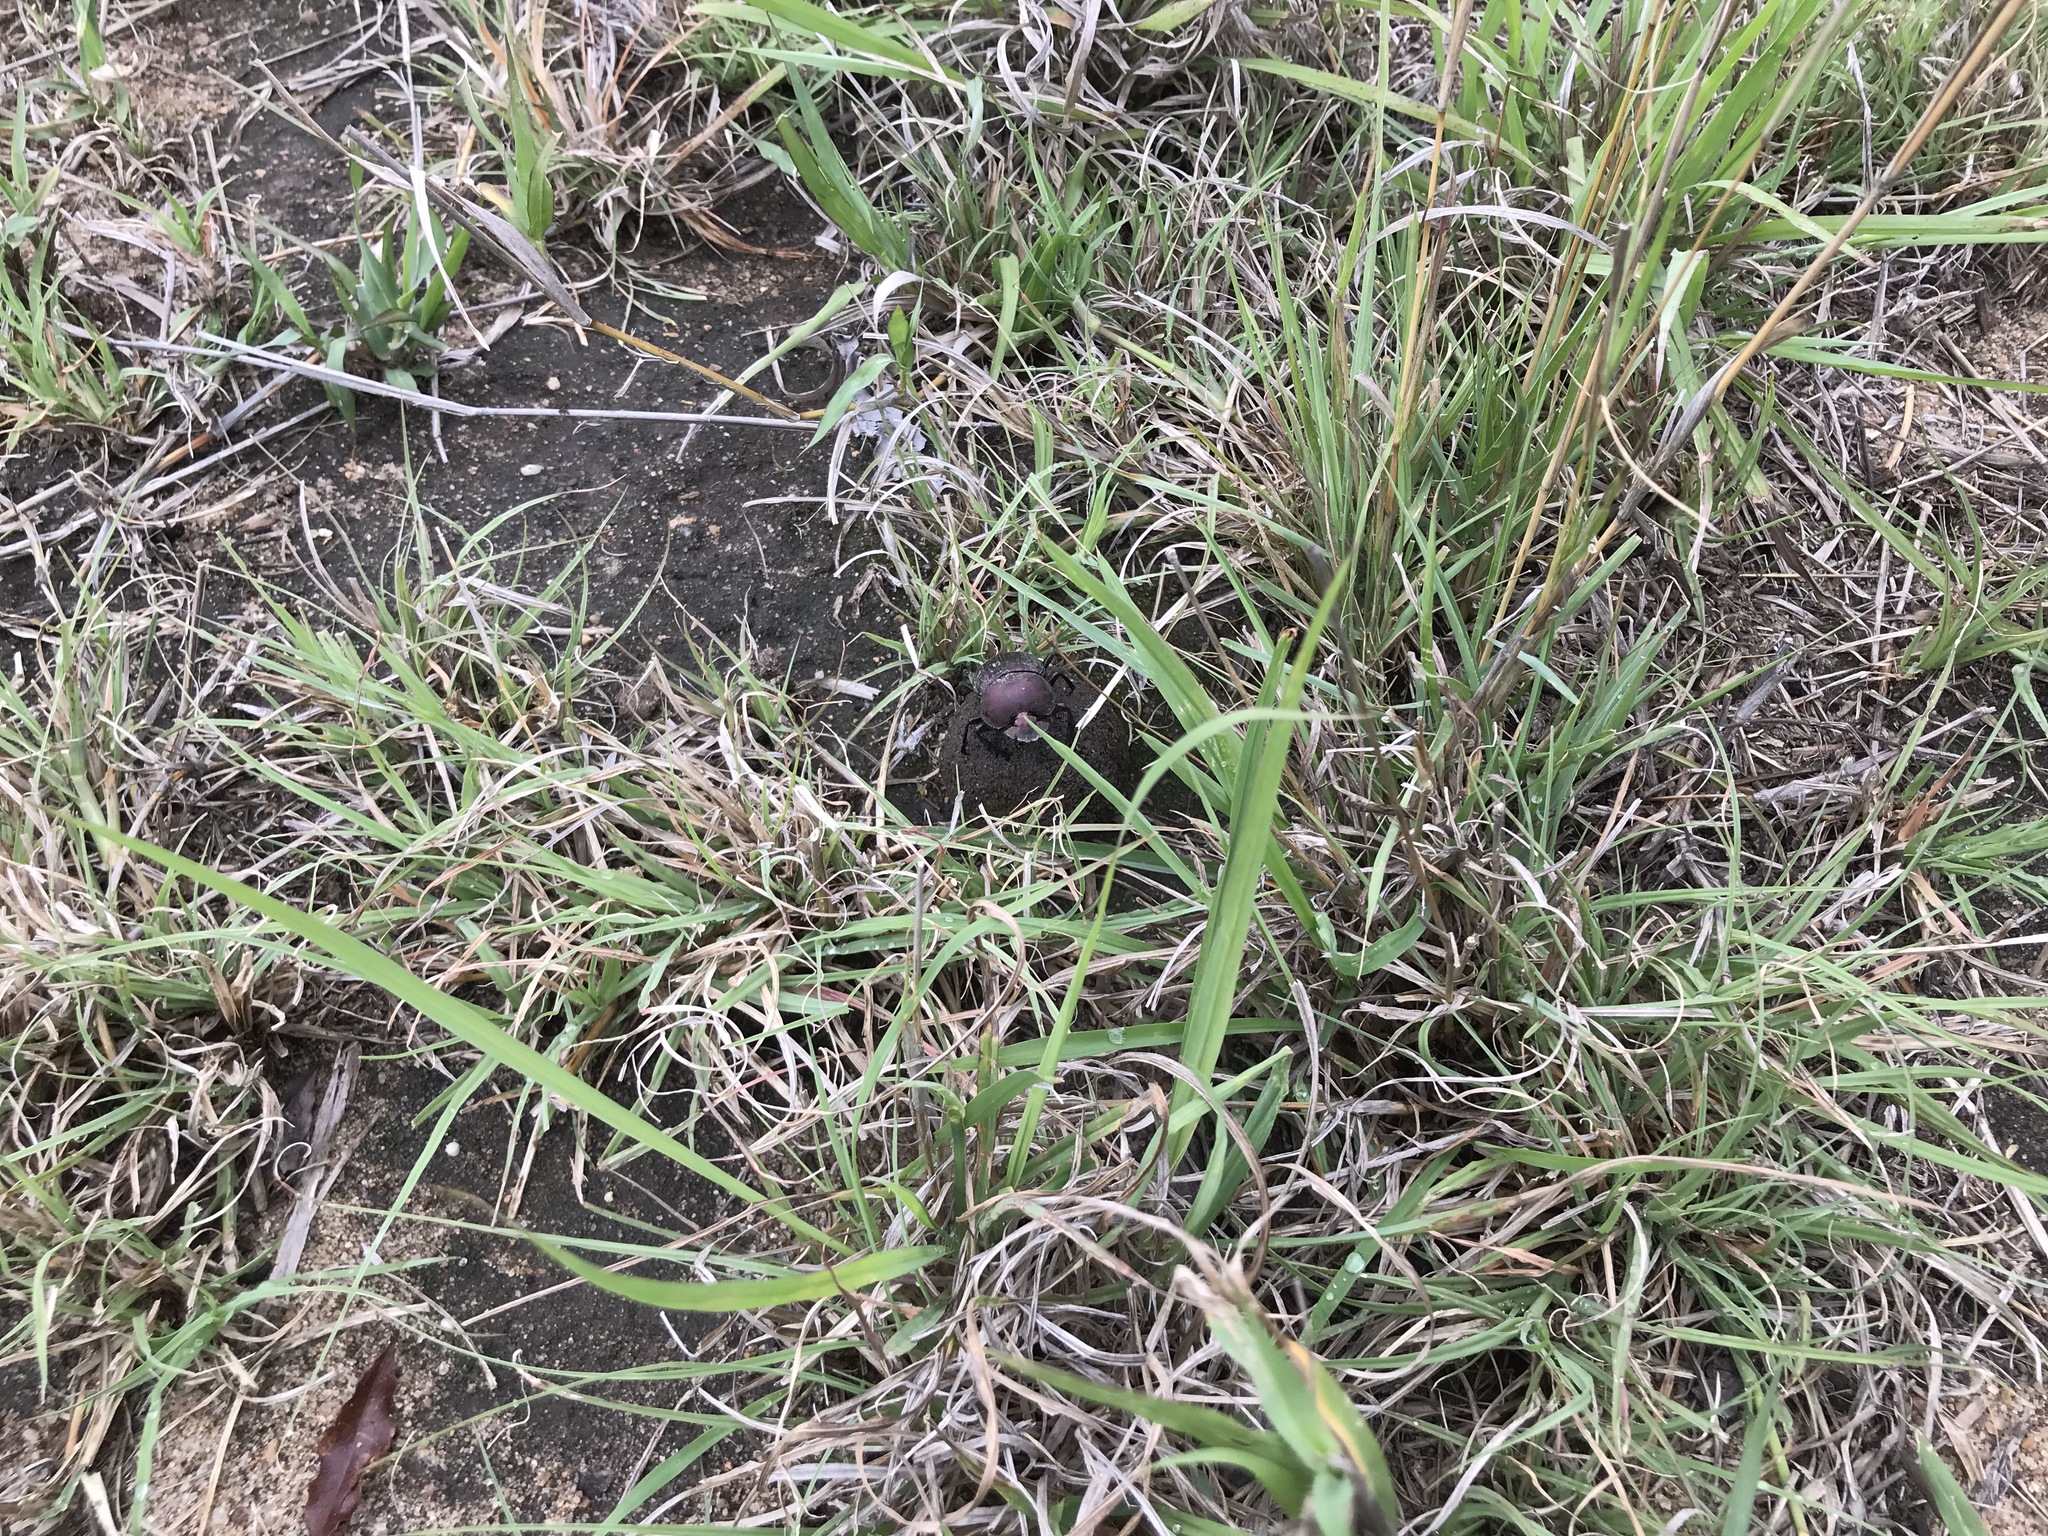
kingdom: Animalia
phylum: Arthropoda
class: Insecta
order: Coleoptera
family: Scarabaeidae
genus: Kheper
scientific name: Kheper nigroaeneus
